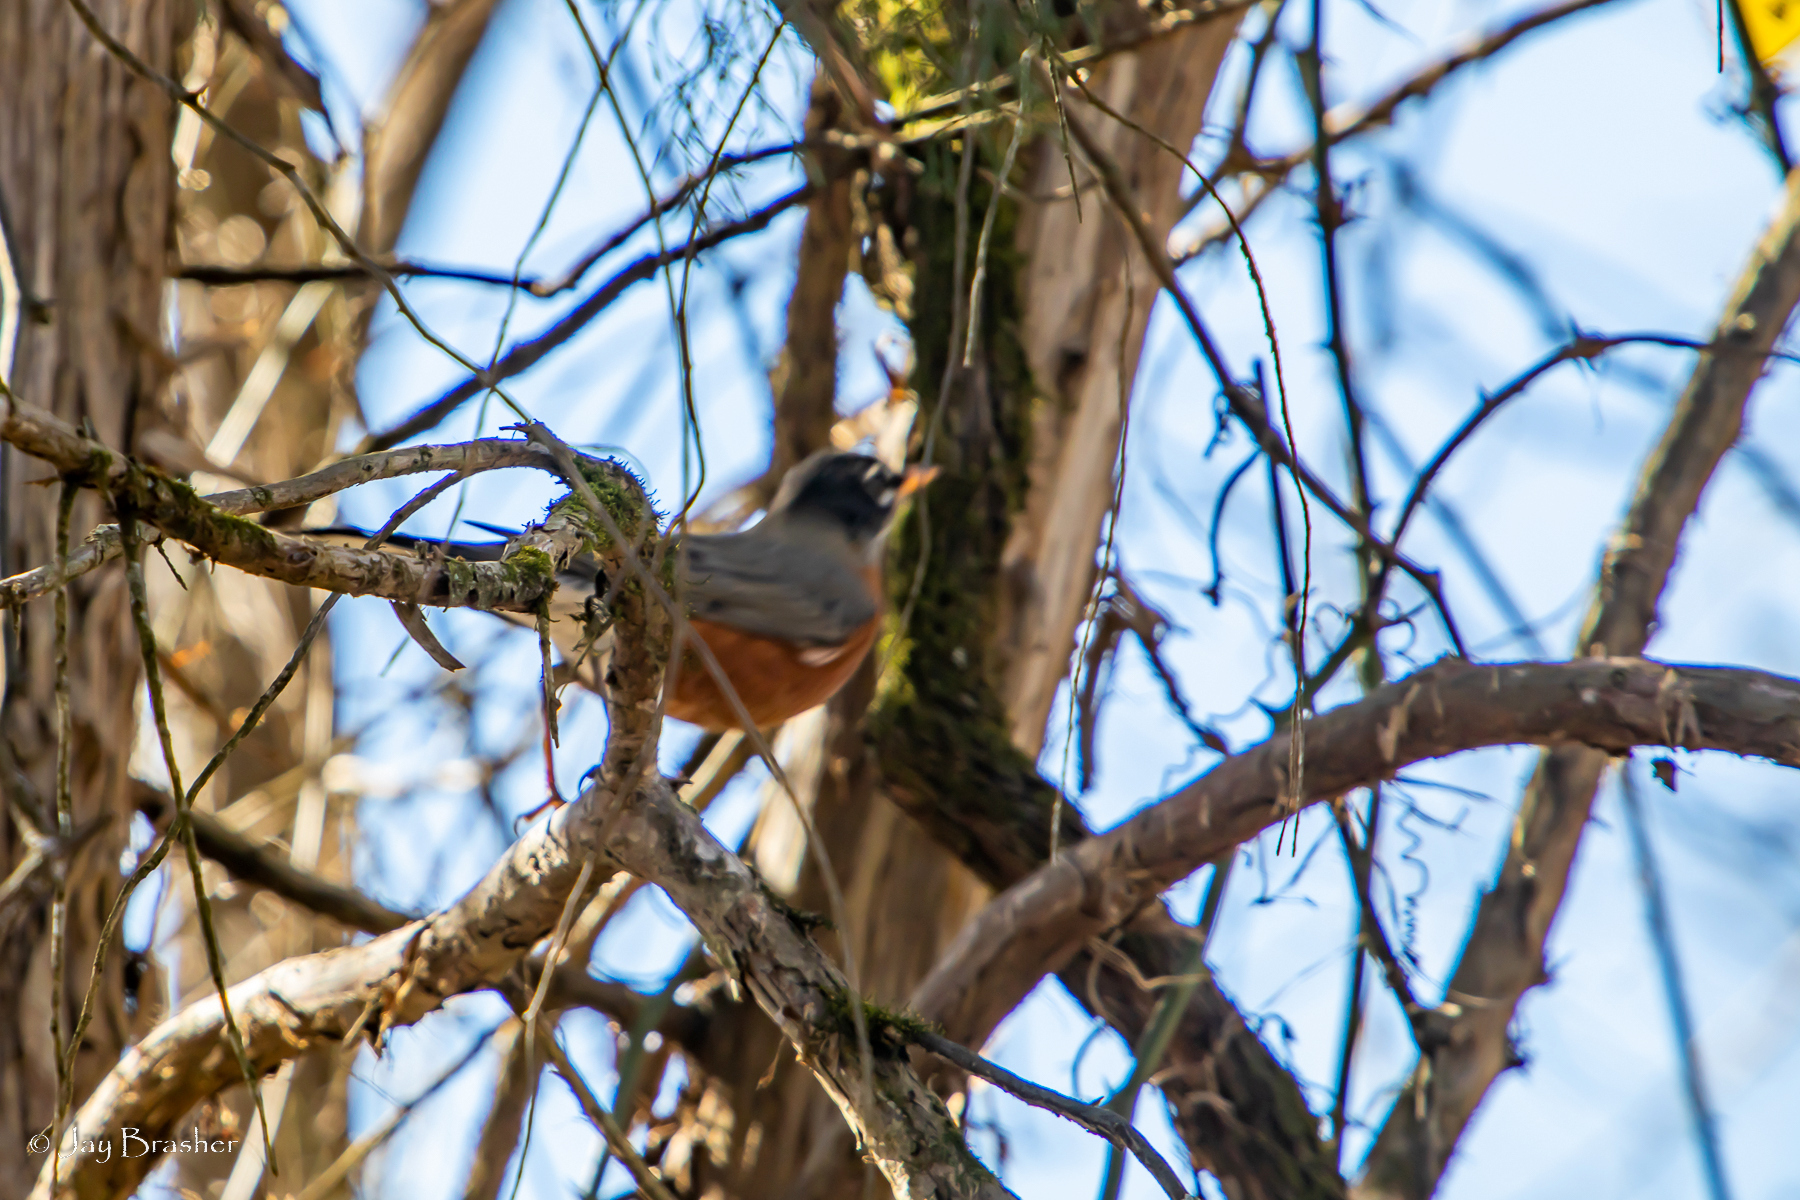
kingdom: Animalia
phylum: Chordata
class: Aves
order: Passeriformes
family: Turdidae
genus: Turdus
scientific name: Turdus migratorius
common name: American robin
